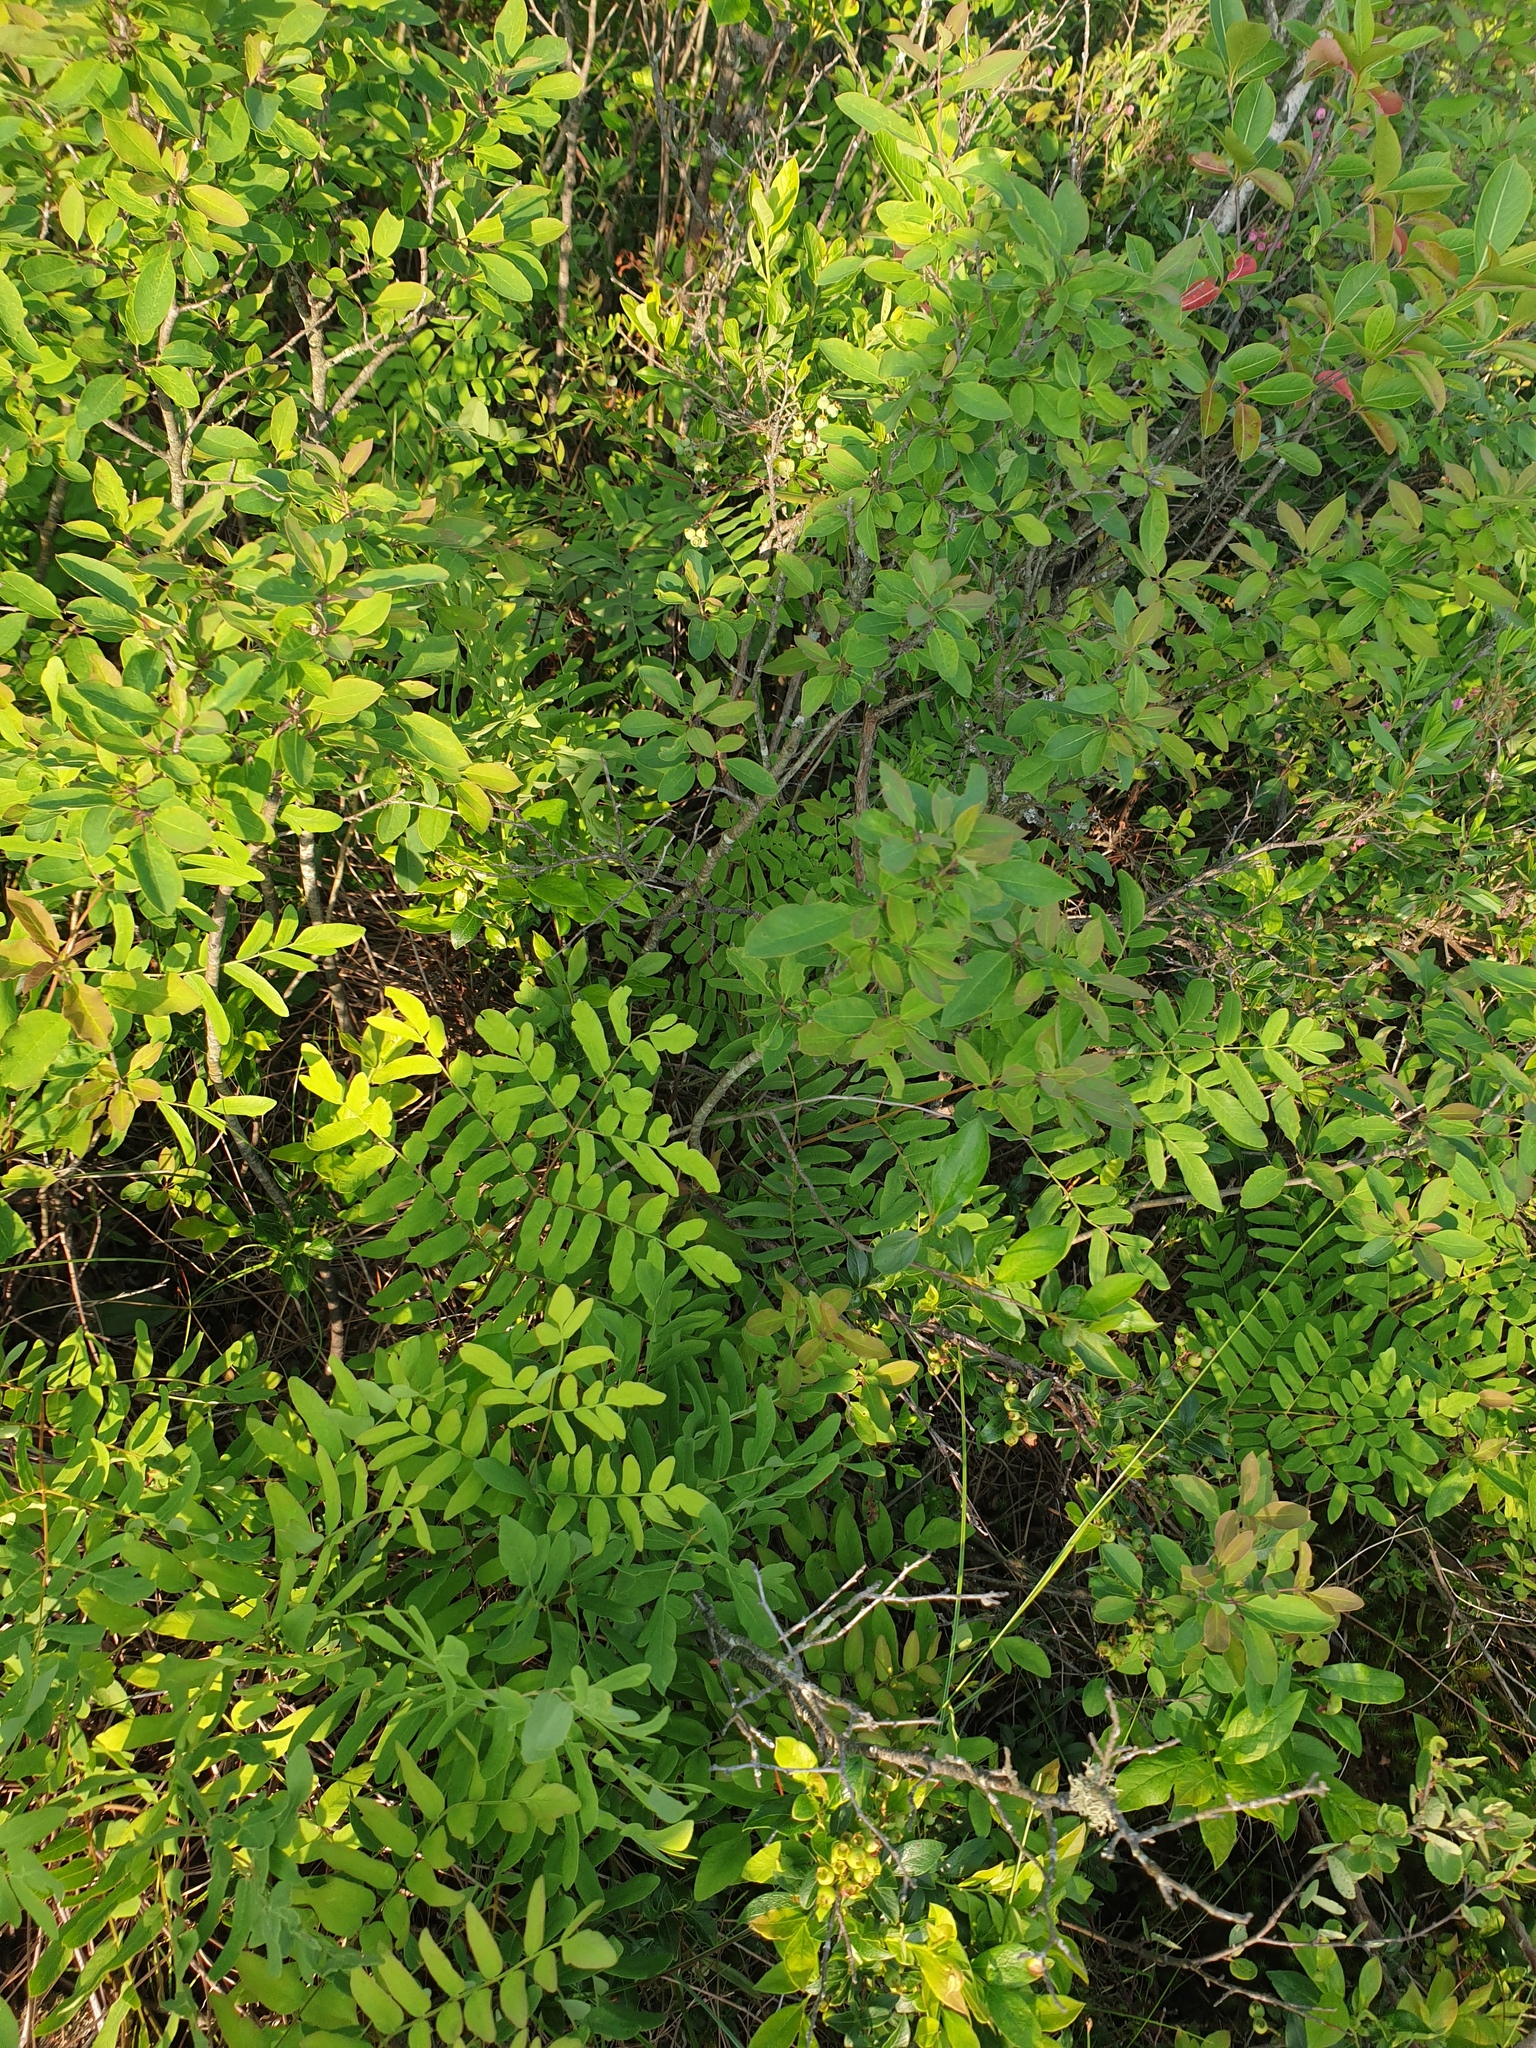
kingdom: Plantae
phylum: Tracheophyta
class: Polypodiopsida
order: Osmundales
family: Osmundaceae
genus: Osmunda
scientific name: Osmunda spectabilis
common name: American royal fern
